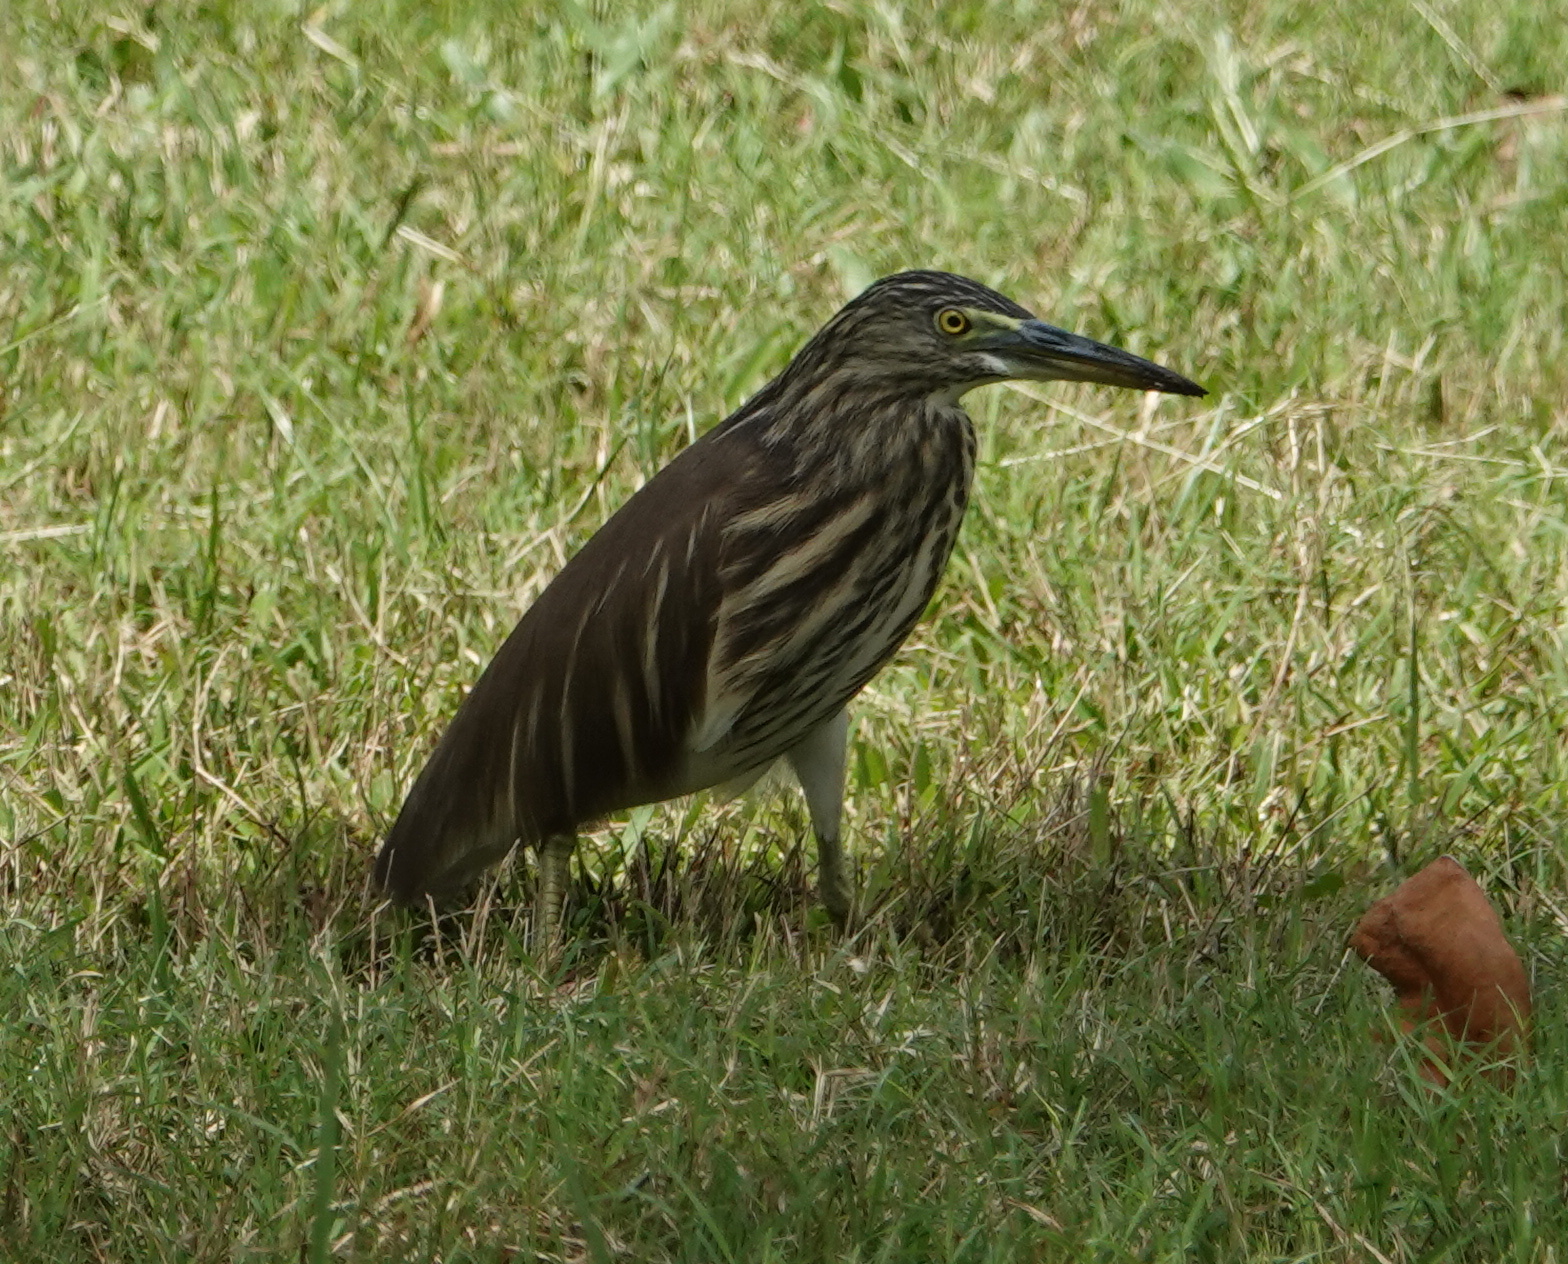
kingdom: Animalia
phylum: Chordata
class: Aves
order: Pelecaniformes
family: Ardeidae
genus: Ardeola
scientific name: Ardeola grayii
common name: Indian pond heron
